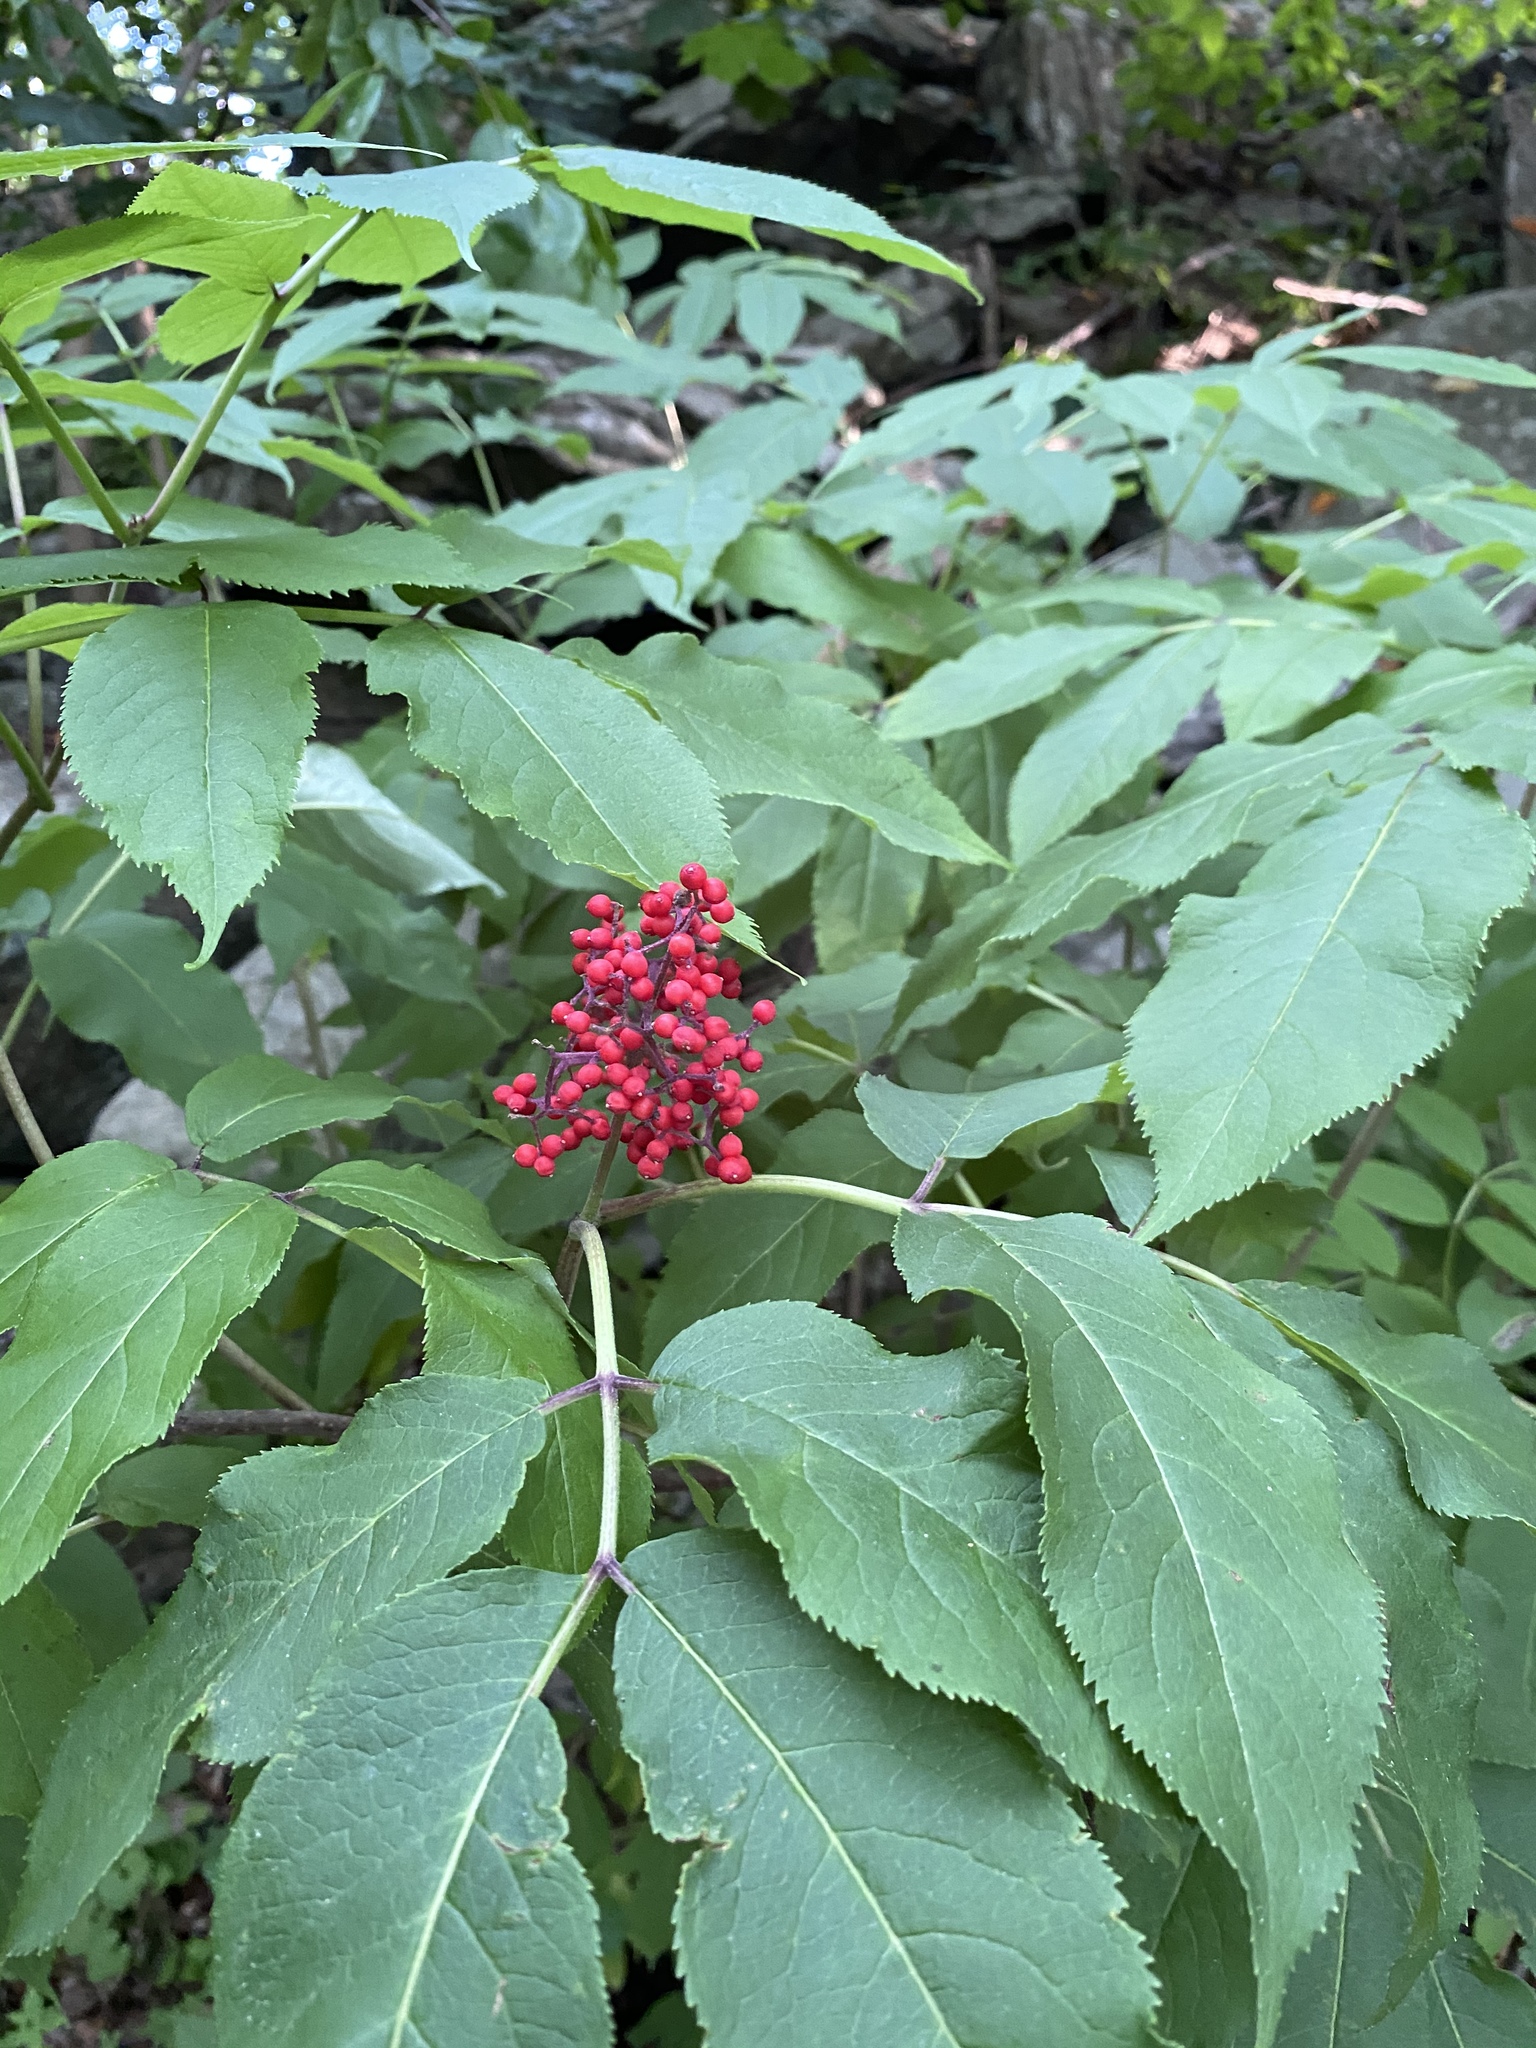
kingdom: Plantae
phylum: Tracheophyta
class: Magnoliopsida
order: Dipsacales
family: Viburnaceae
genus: Sambucus
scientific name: Sambucus racemosa
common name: Red-berried elder
